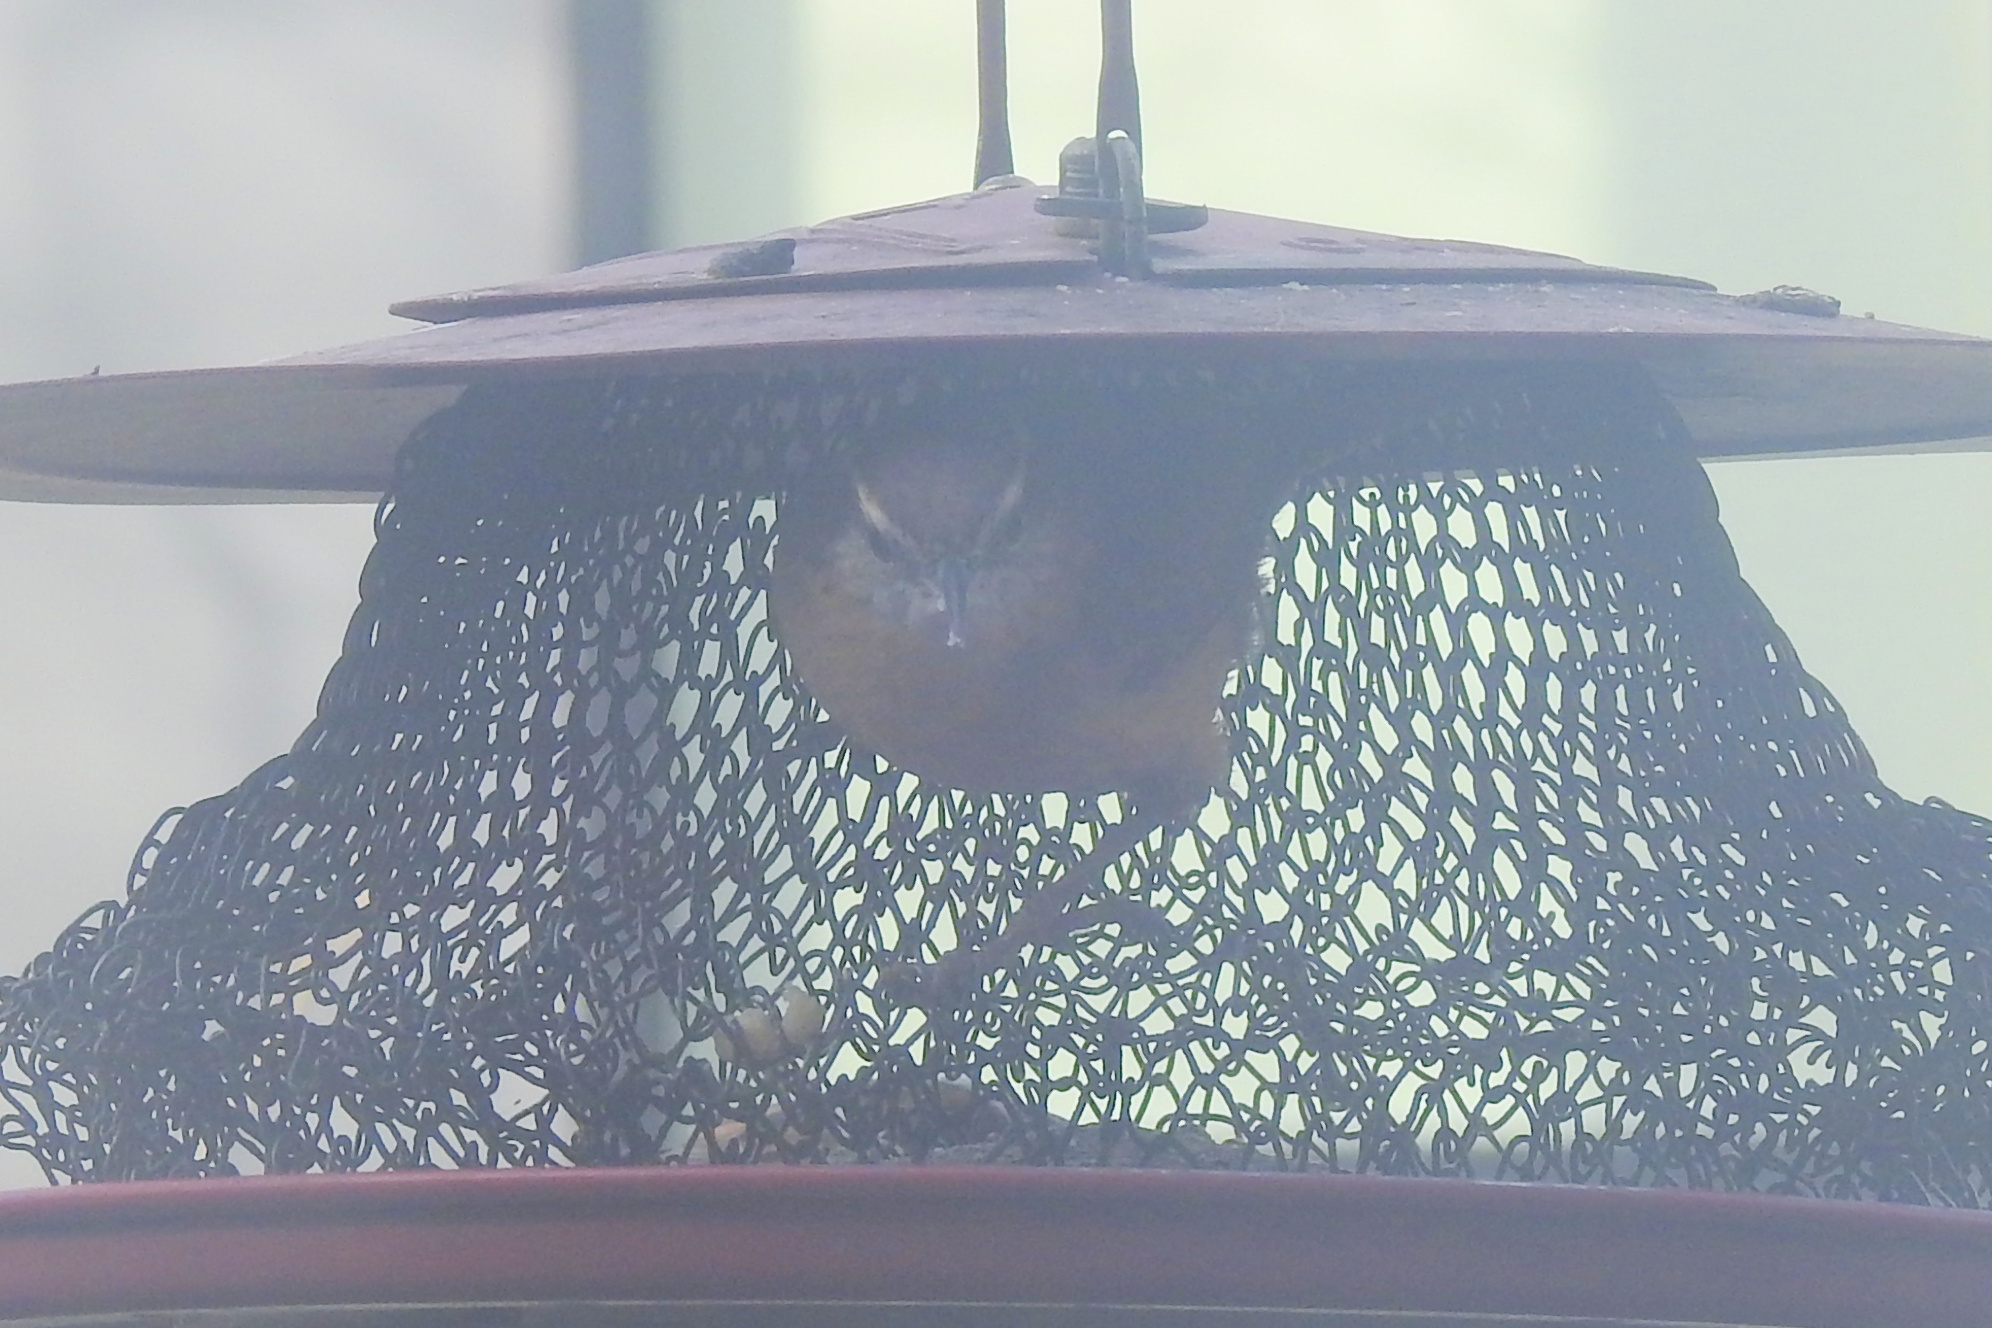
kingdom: Animalia
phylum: Chordata
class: Aves
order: Passeriformes
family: Troglodytidae
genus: Thryothorus
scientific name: Thryothorus ludovicianus
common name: Carolina wren
